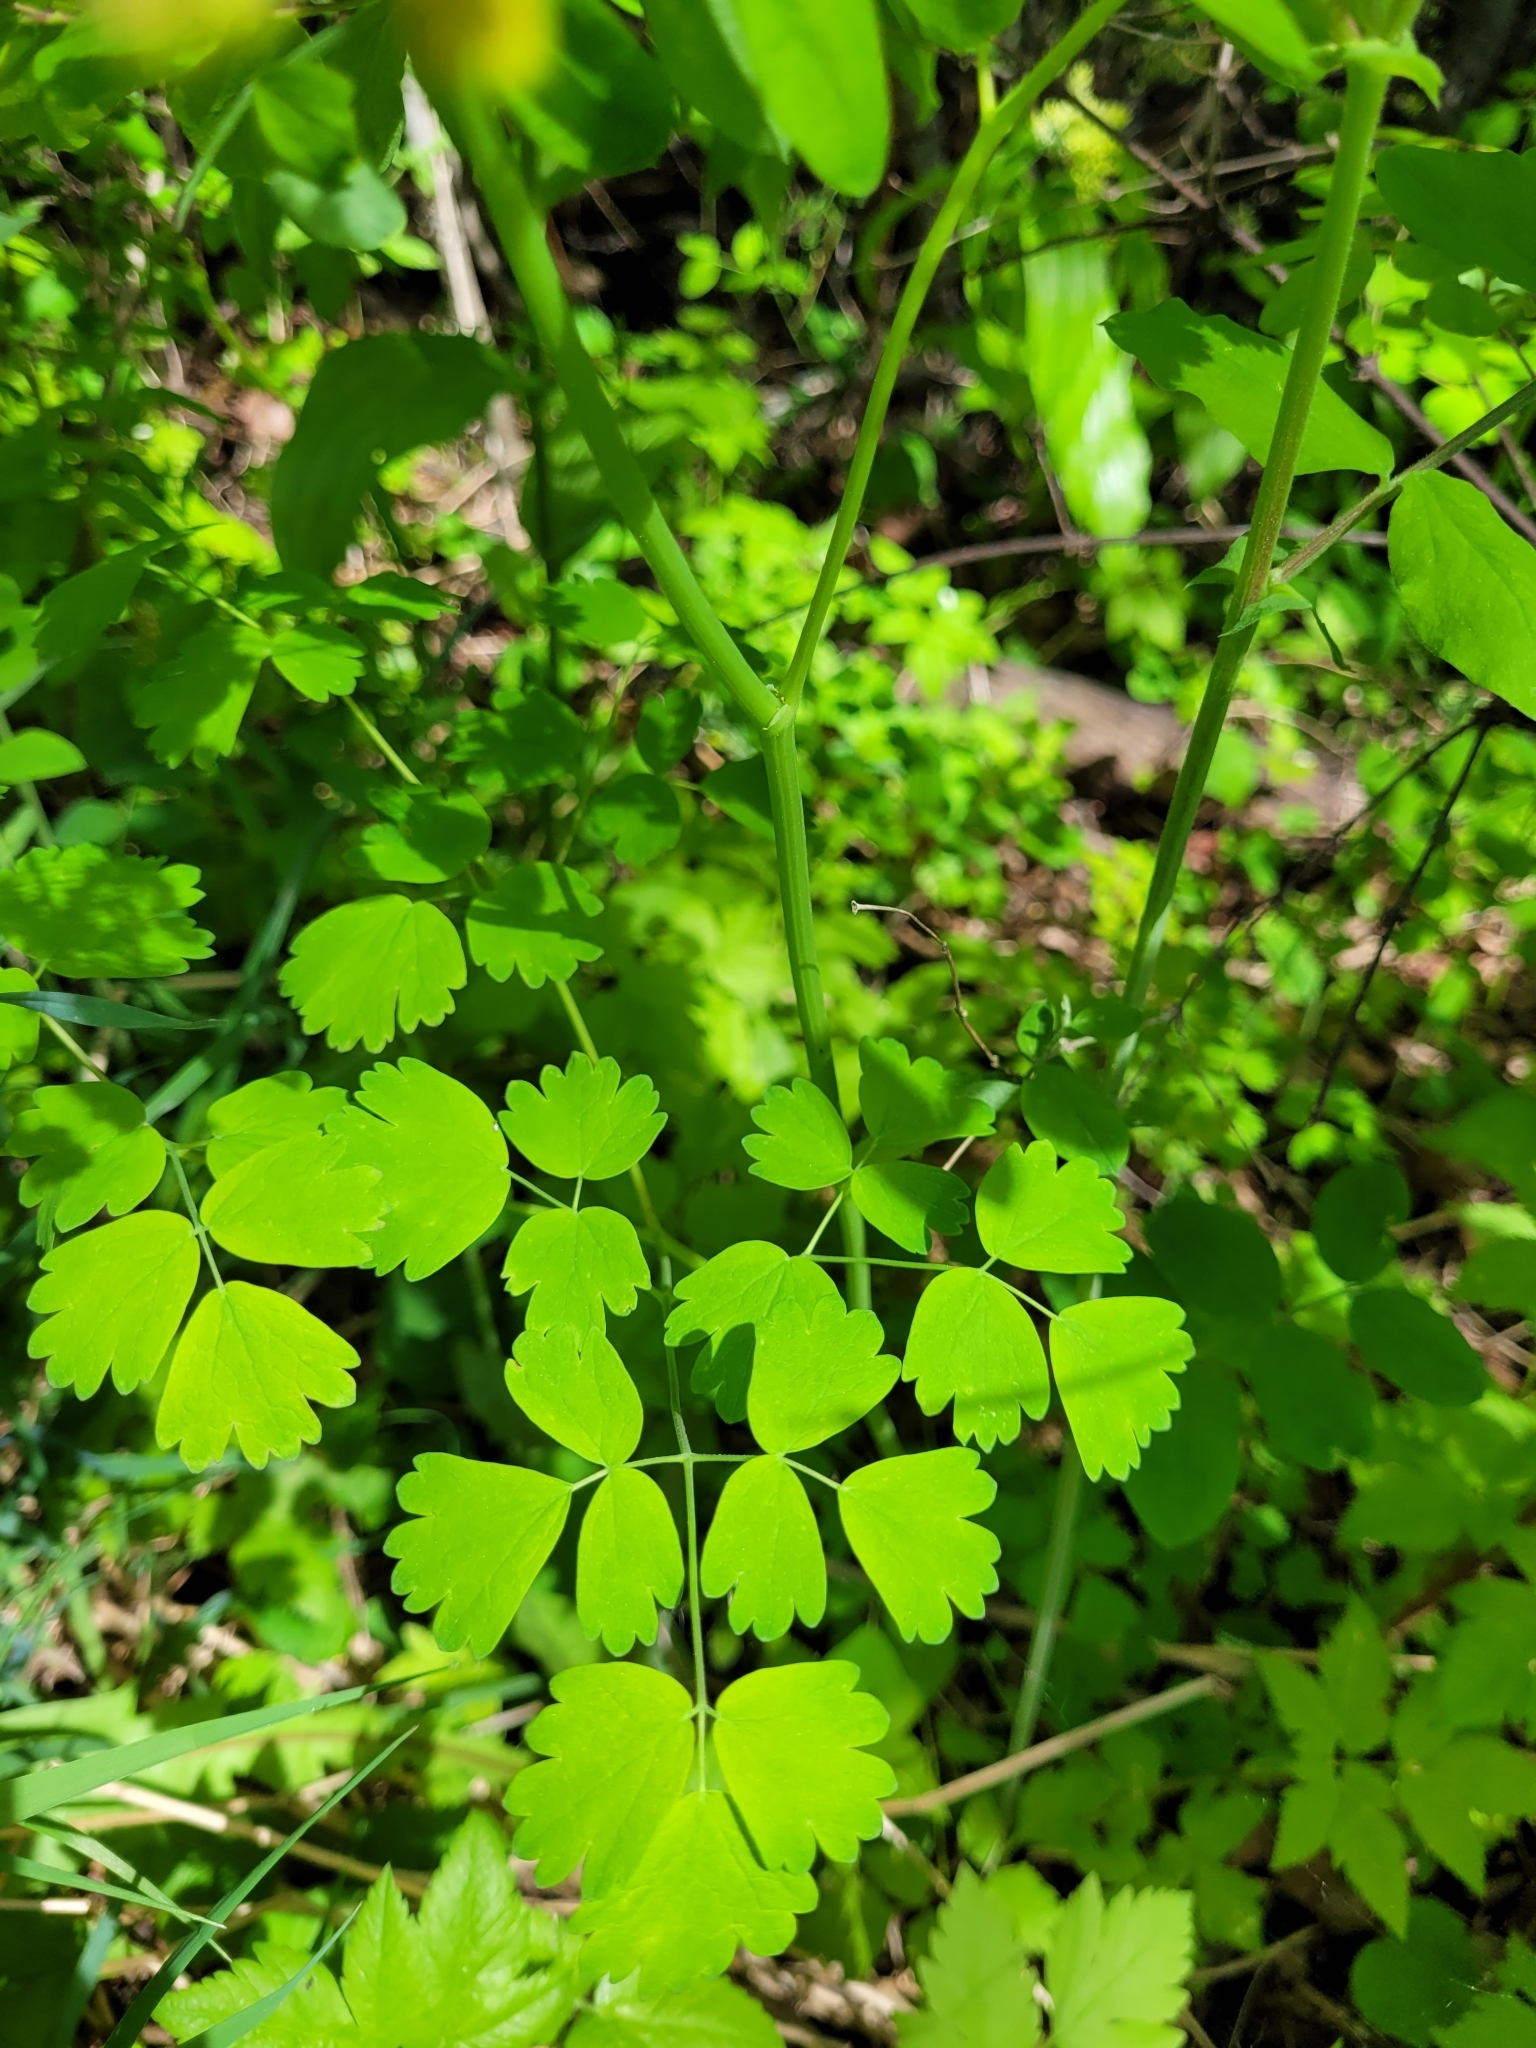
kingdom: Plantae
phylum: Tracheophyta
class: Magnoliopsida
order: Ranunculales
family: Ranunculaceae
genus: Thalictrum
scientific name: Thalictrum occidentale
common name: Western meadow-rue
